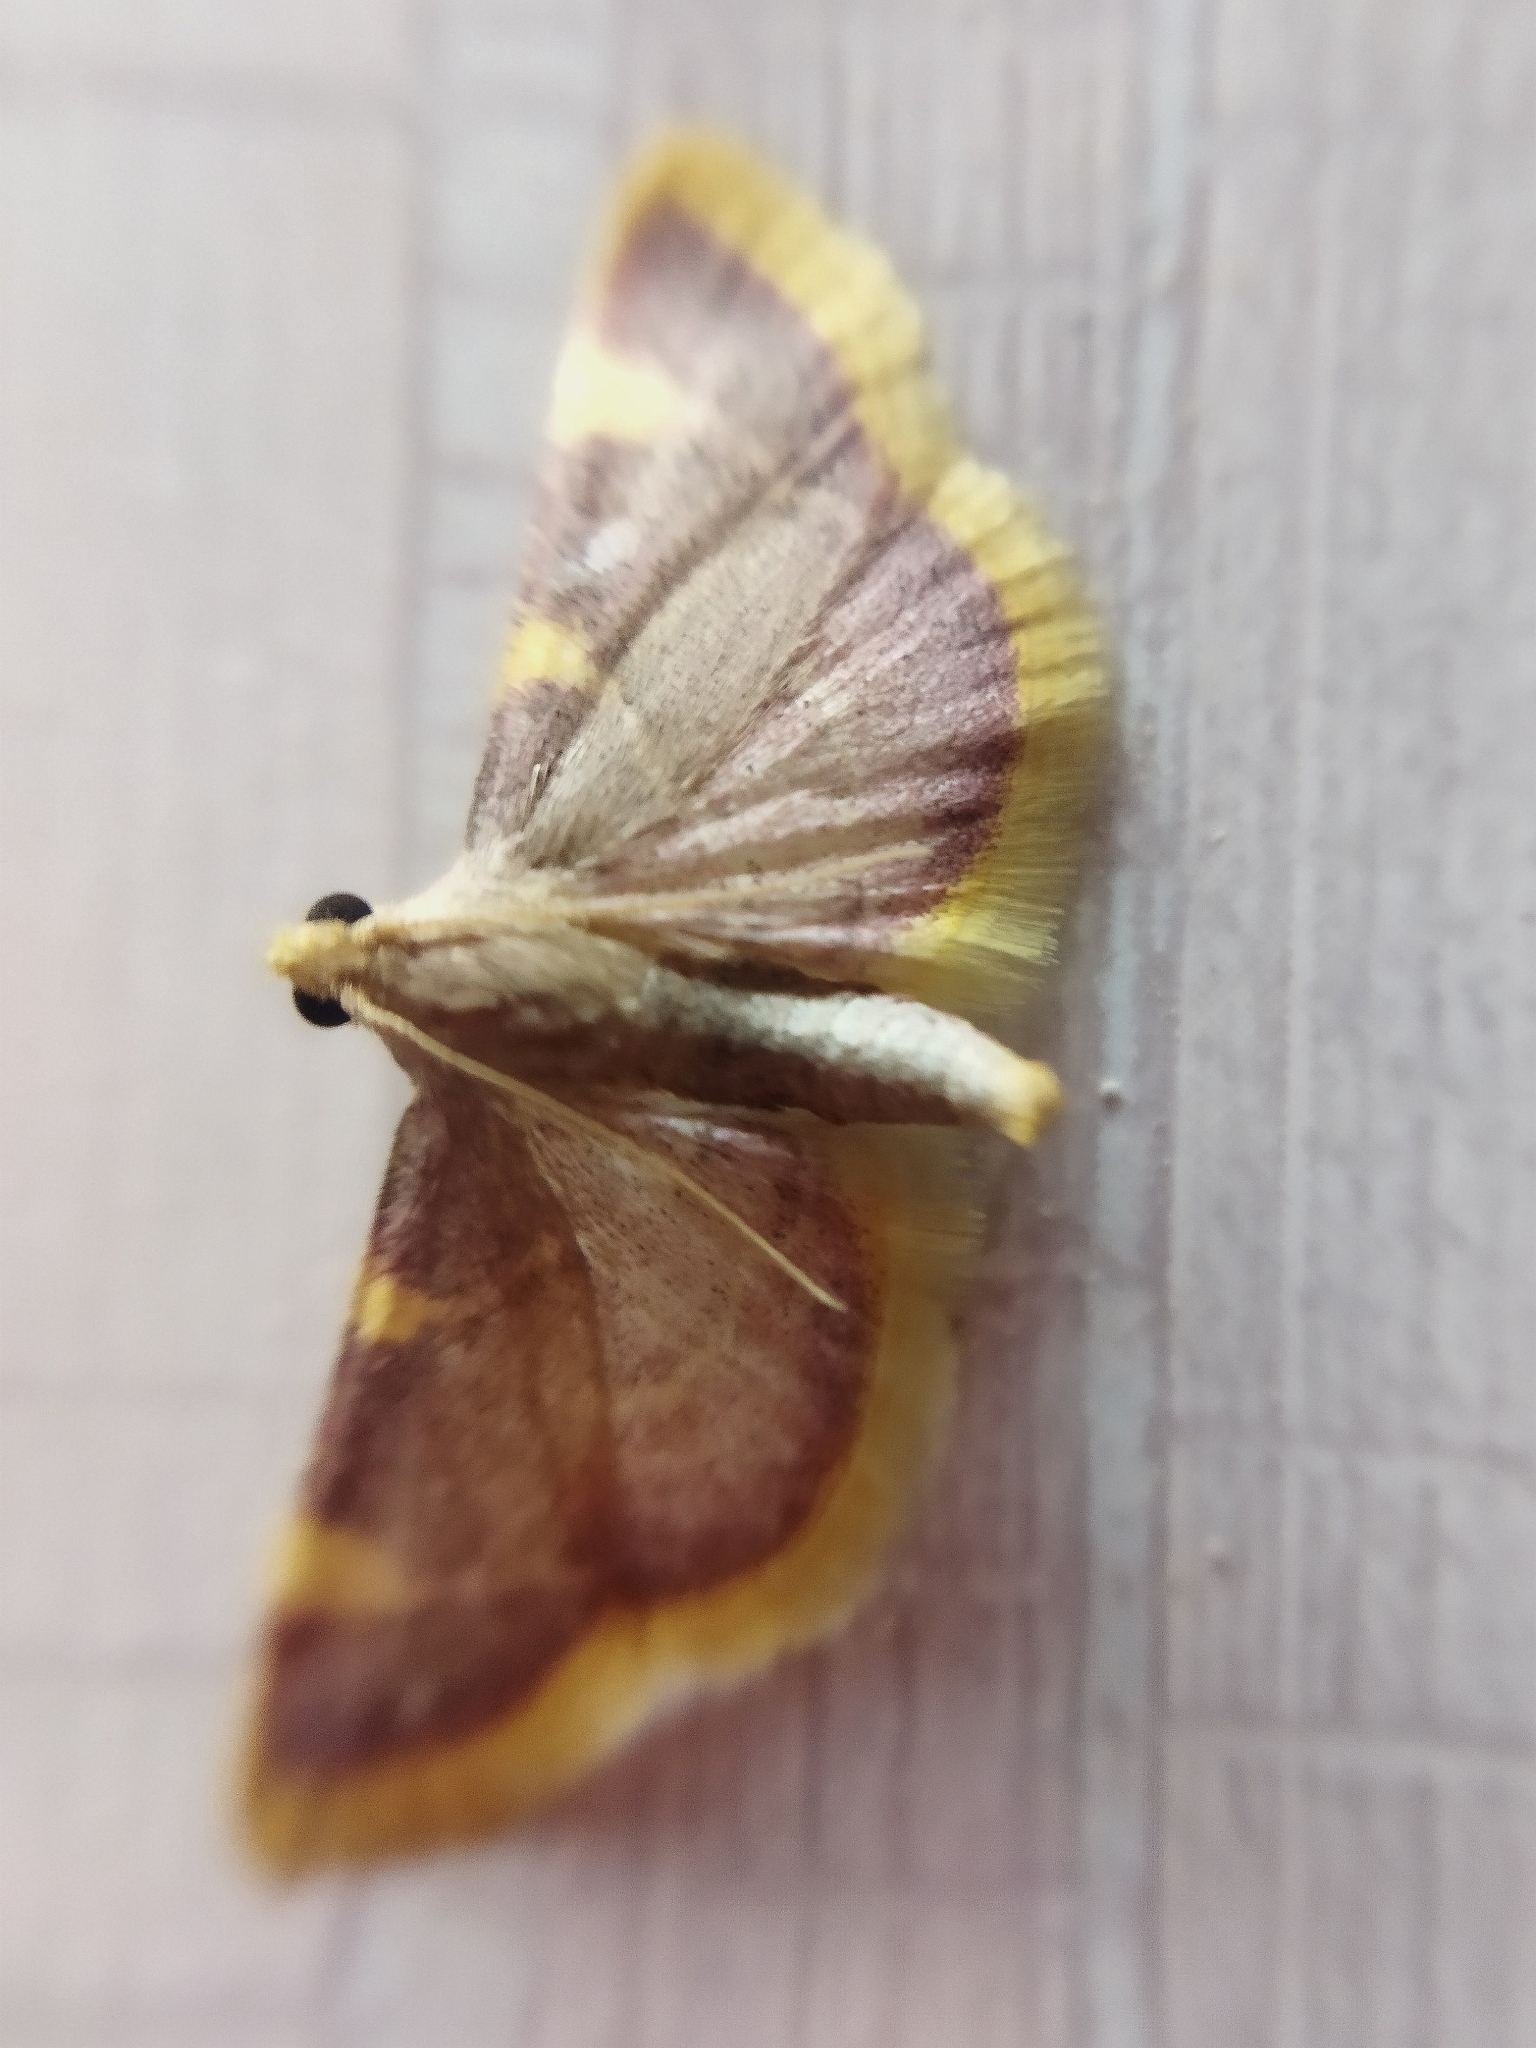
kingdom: Animalia
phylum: Arthropoda
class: Insecta
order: Lepidoptera
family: Pyralidae
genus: Hypsopygia
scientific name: Hypsopygia costalis
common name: Gold triangle
